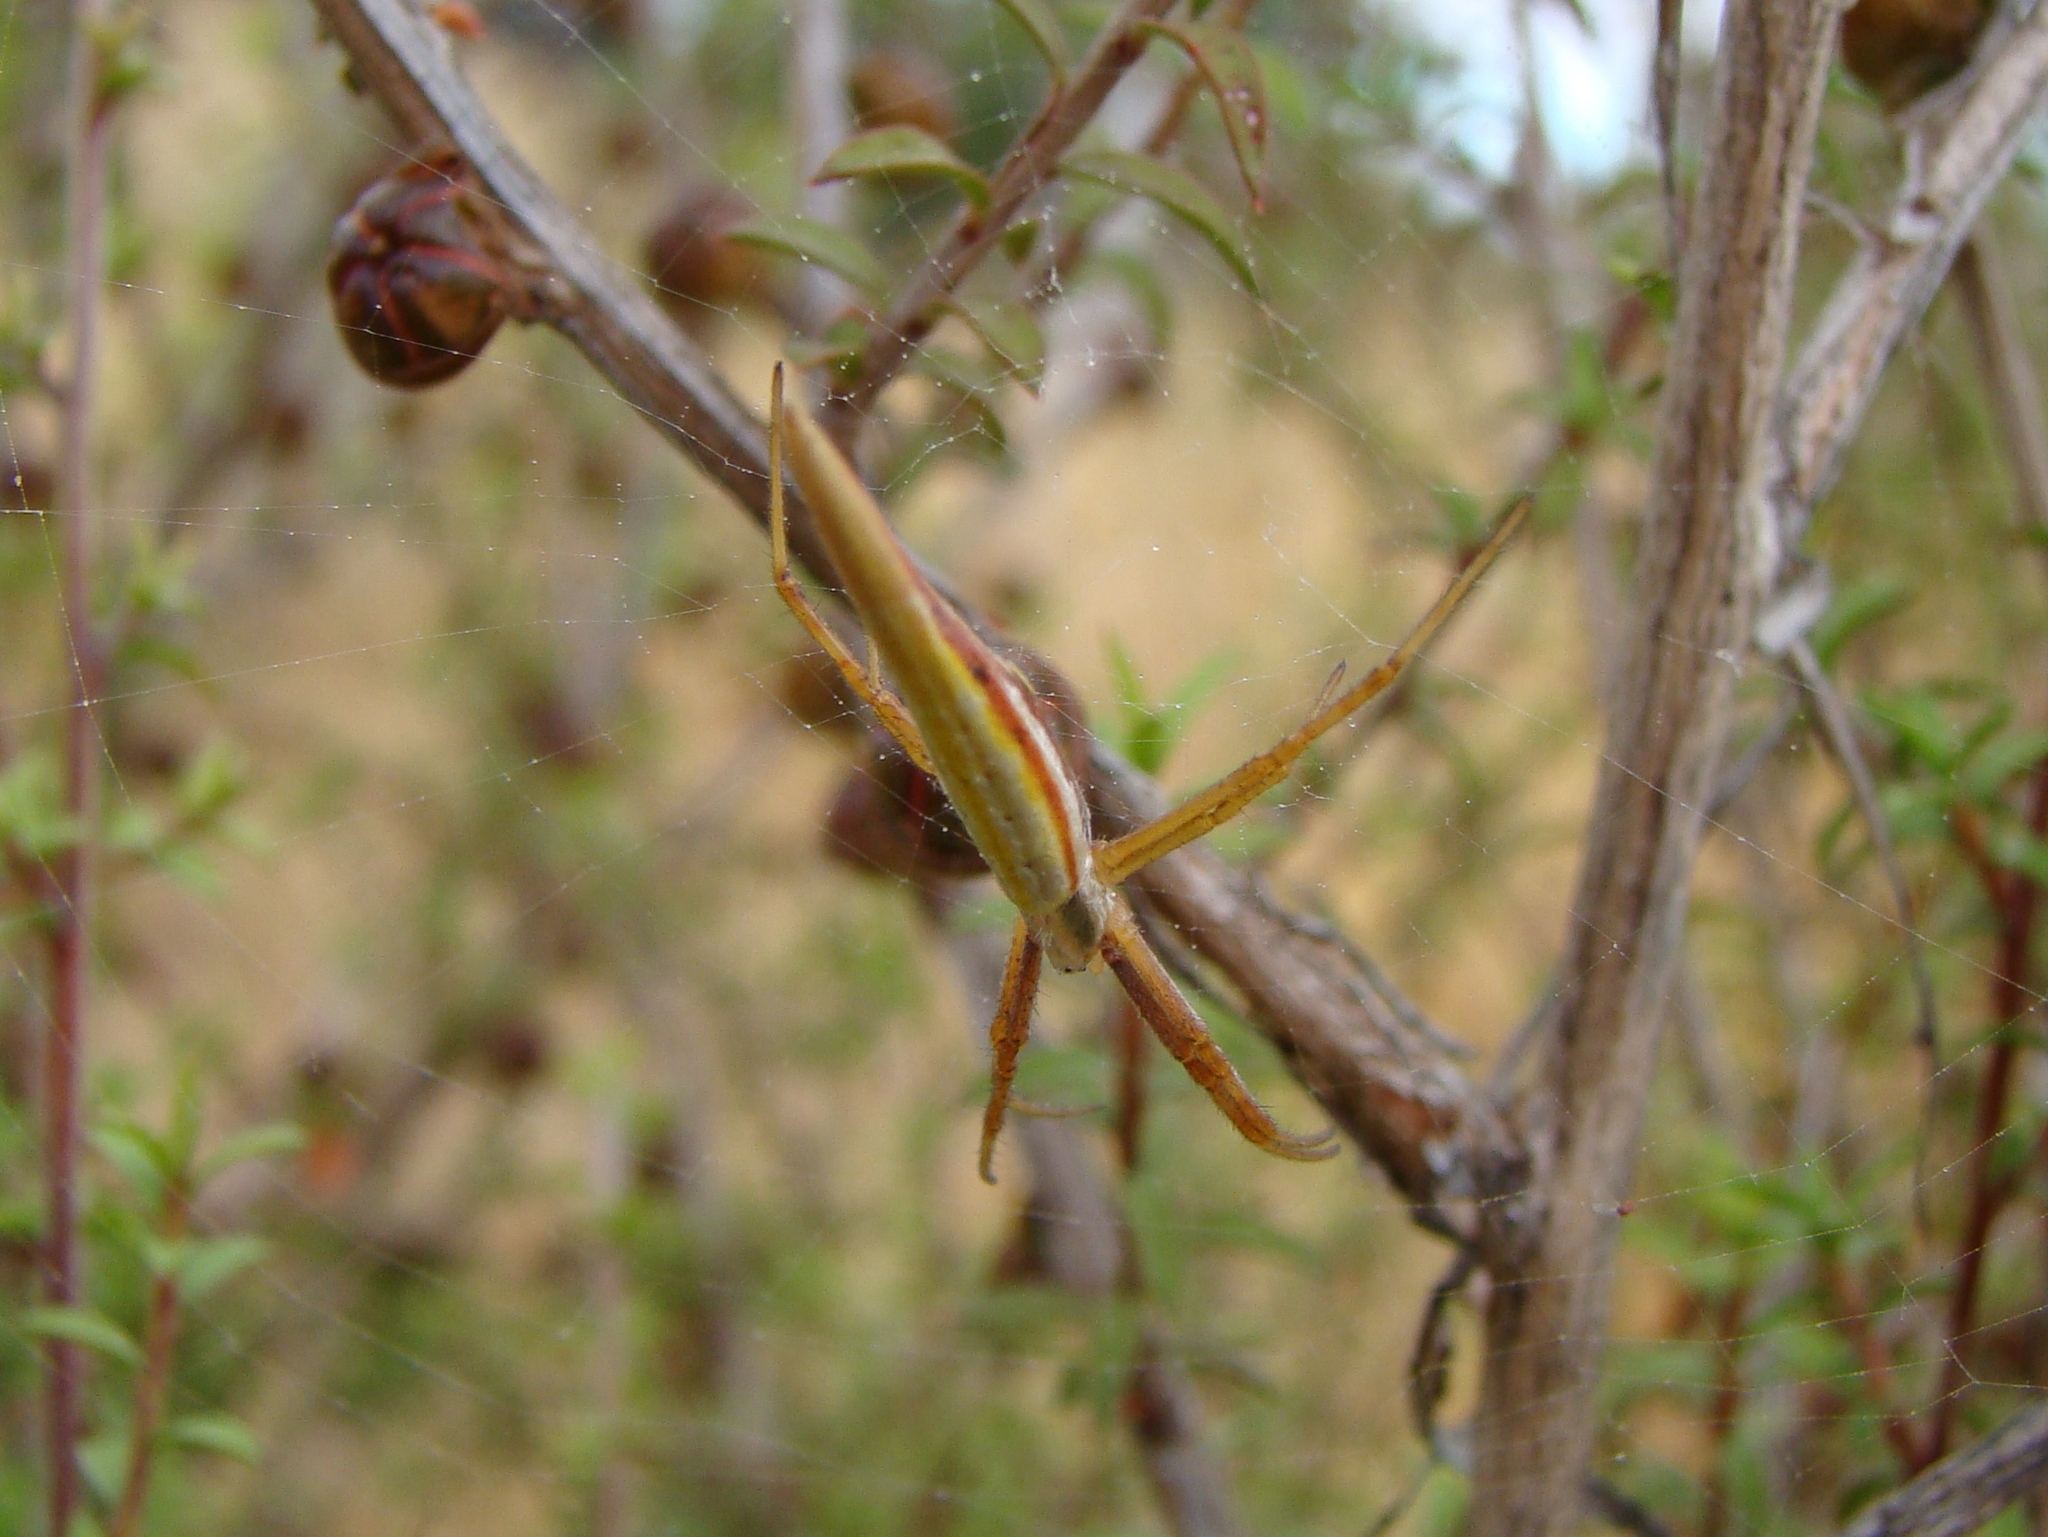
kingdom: Animalia
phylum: Arthropoda
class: Arachnida
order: Araneae
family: Araneidae
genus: Argiope
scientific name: Argiope protensa
